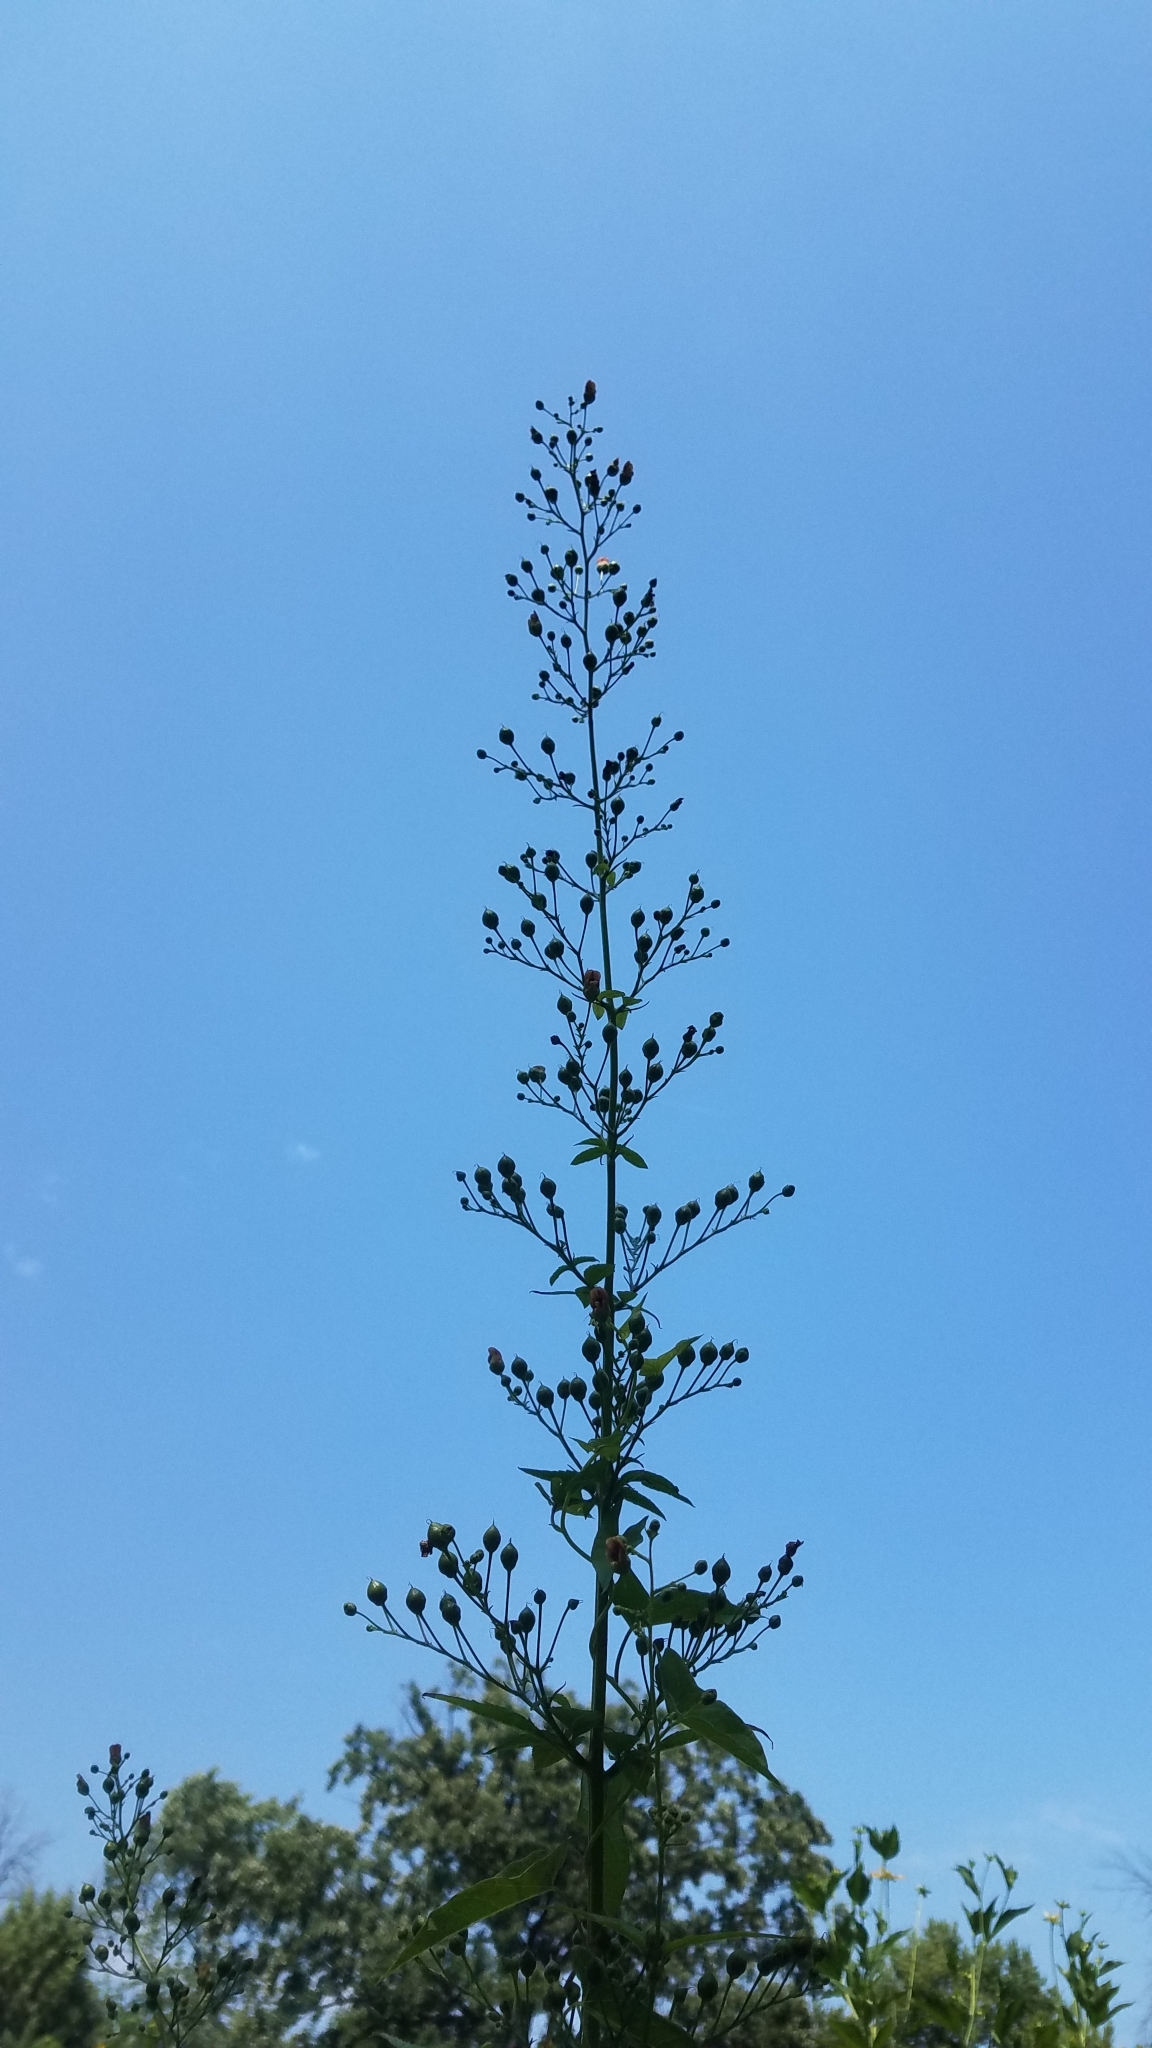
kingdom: Plantae
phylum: Tracheophyta
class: Magnoliopsida
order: Lamiales
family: Scrophulariaceae
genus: Scrophularia
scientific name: Scrophularia marilandica
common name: Eastern figwort
